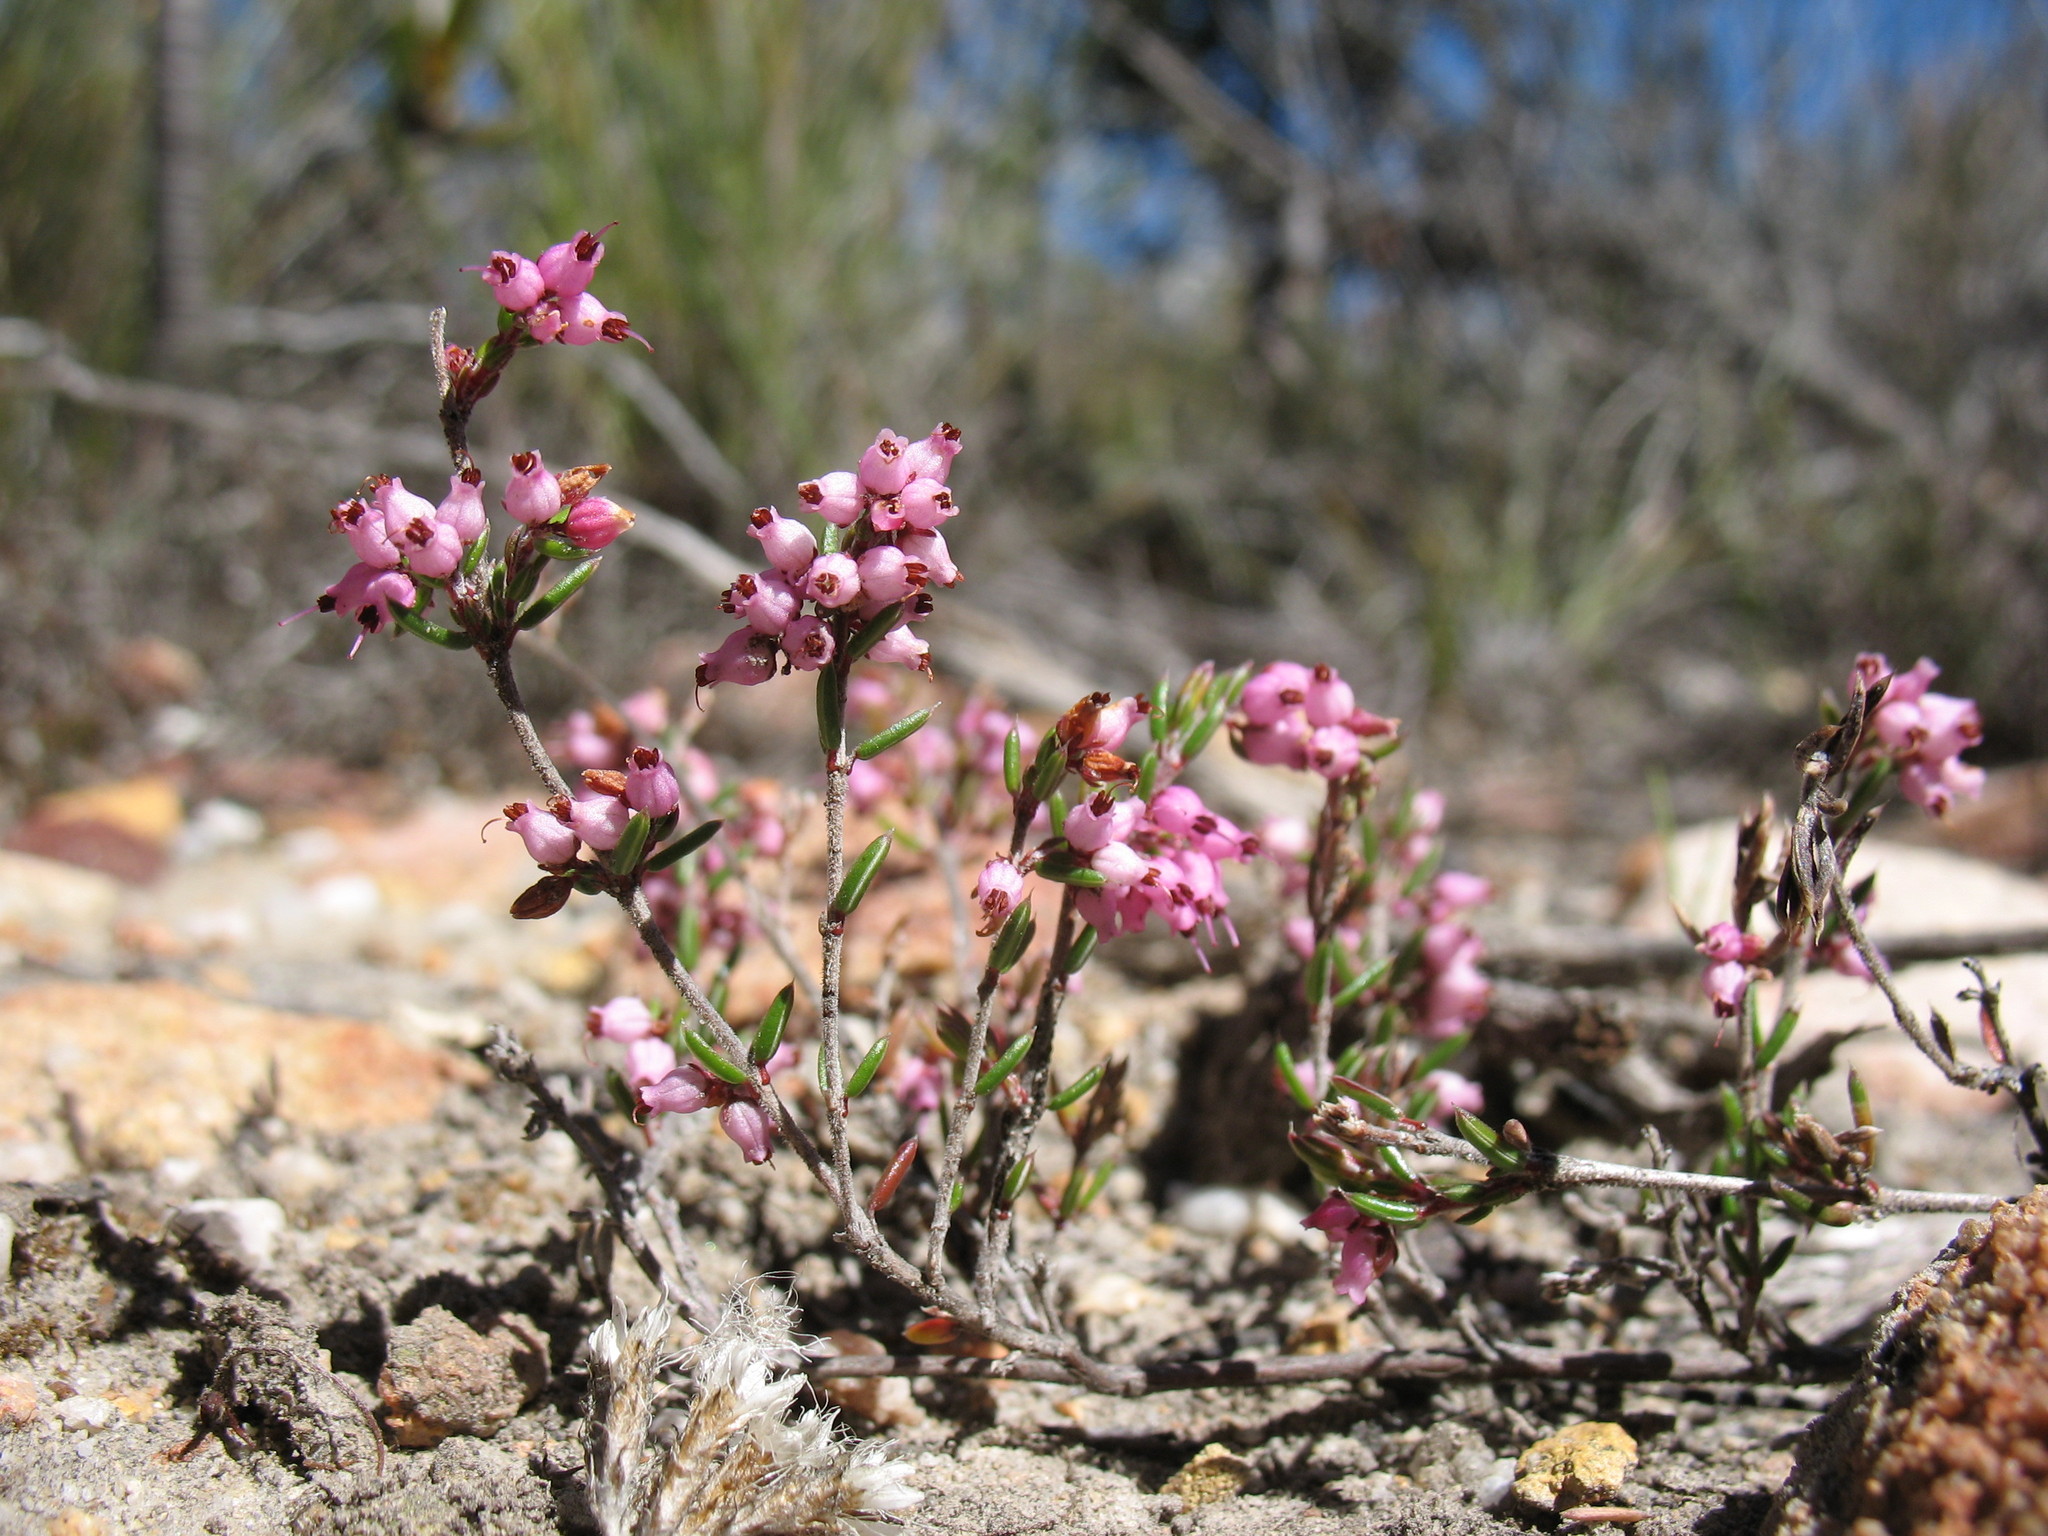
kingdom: Plantae
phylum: Tracheophyta
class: Magnoliopsida
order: Ericales
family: Ericaceae
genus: Erica
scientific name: Erica jonasiana
